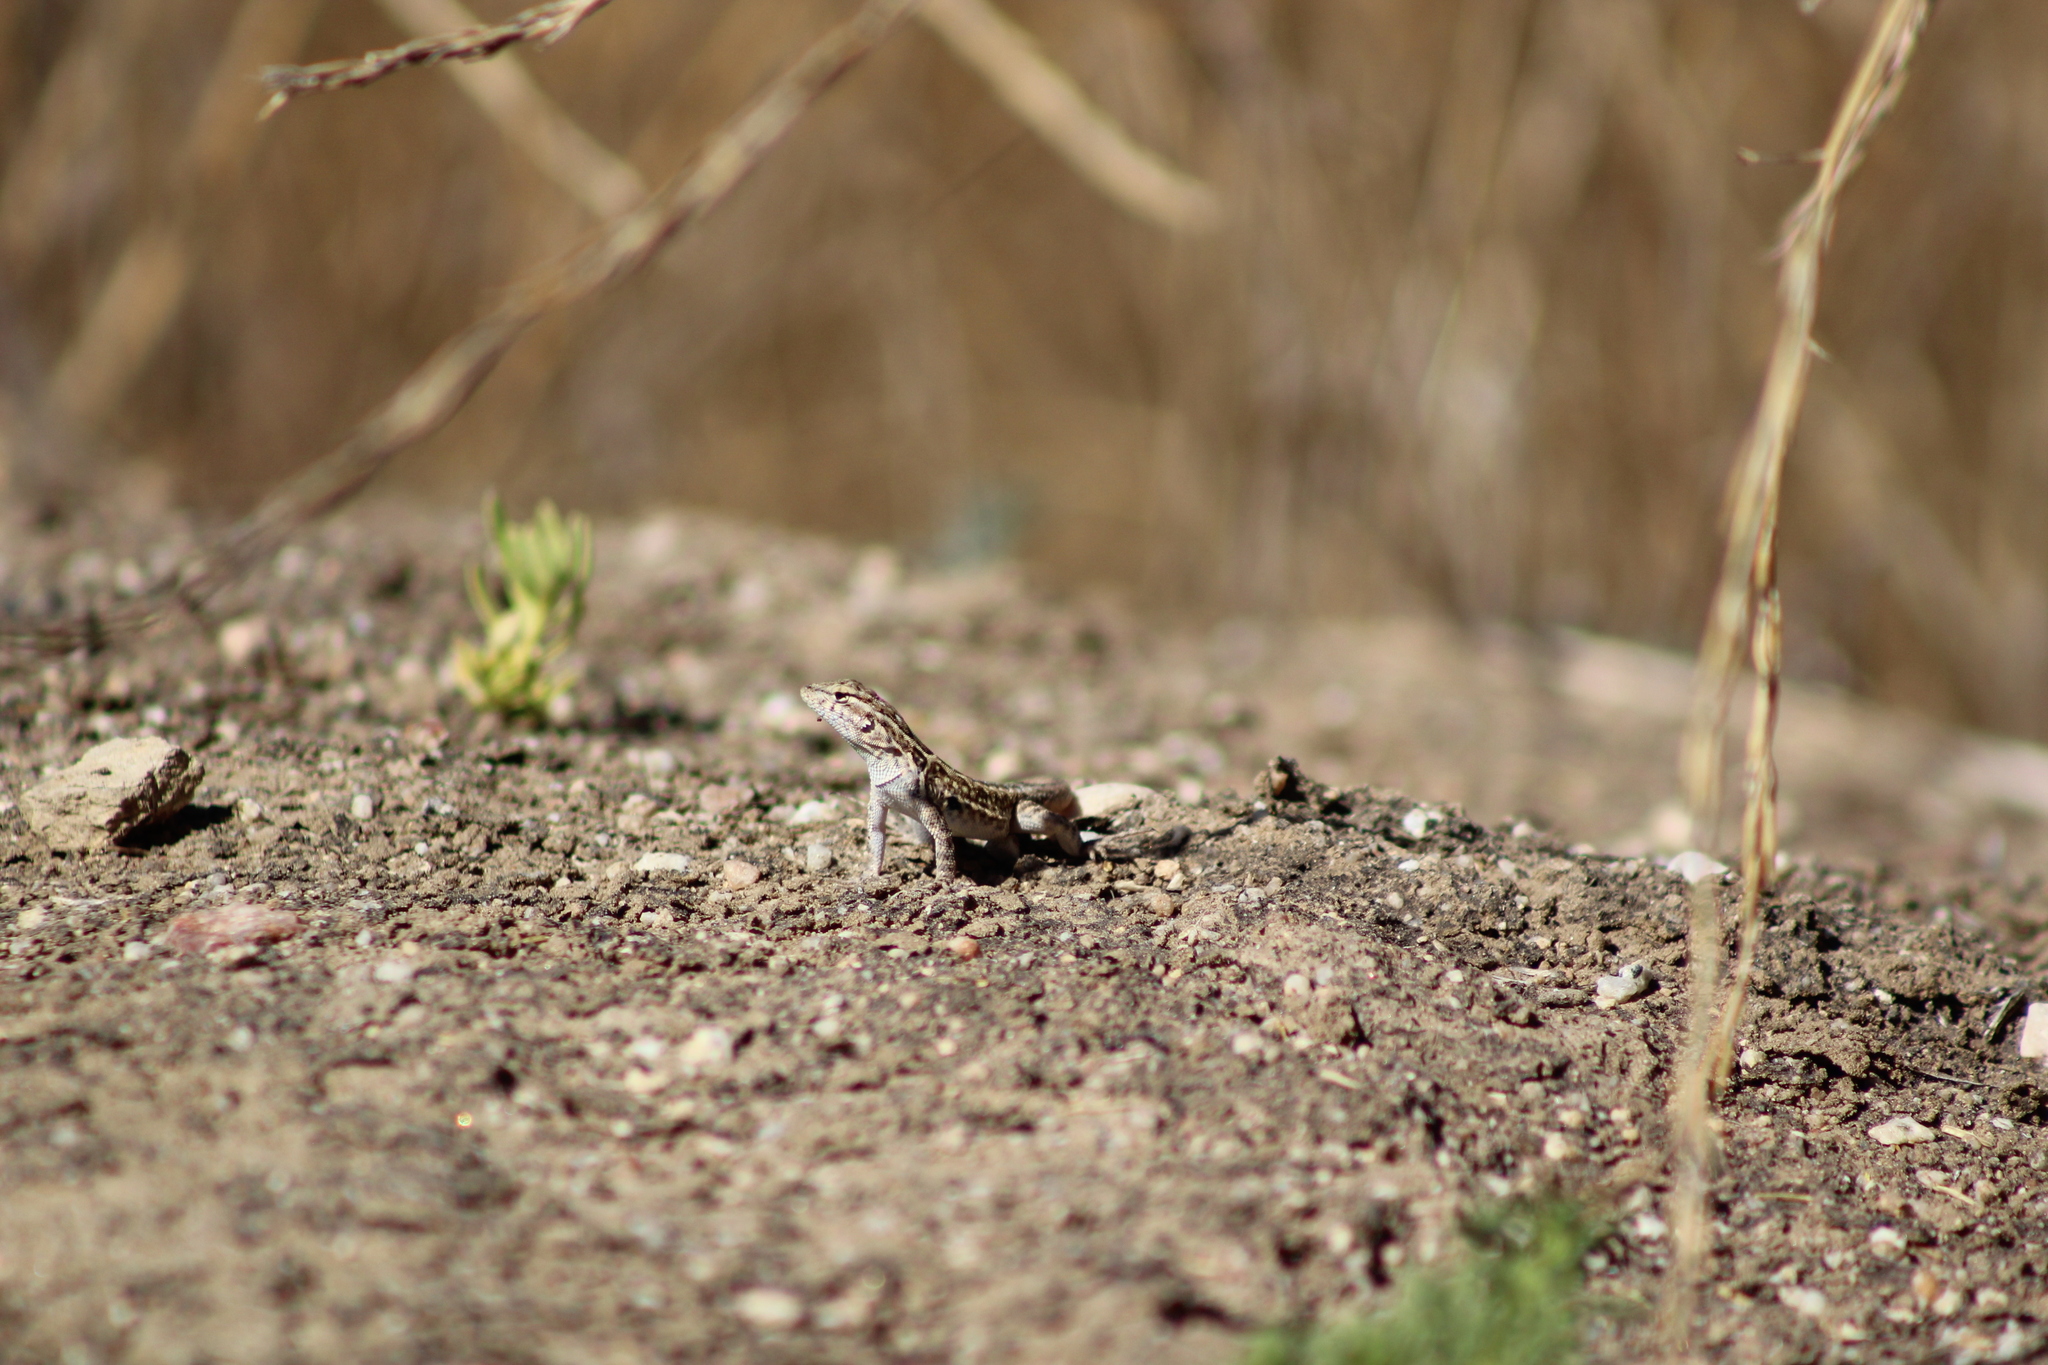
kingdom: Animalia
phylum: Chordata
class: Squamata
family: Phrynosomatidae
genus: Uta
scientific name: Uta stansburiana
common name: Side-blotched lizard
